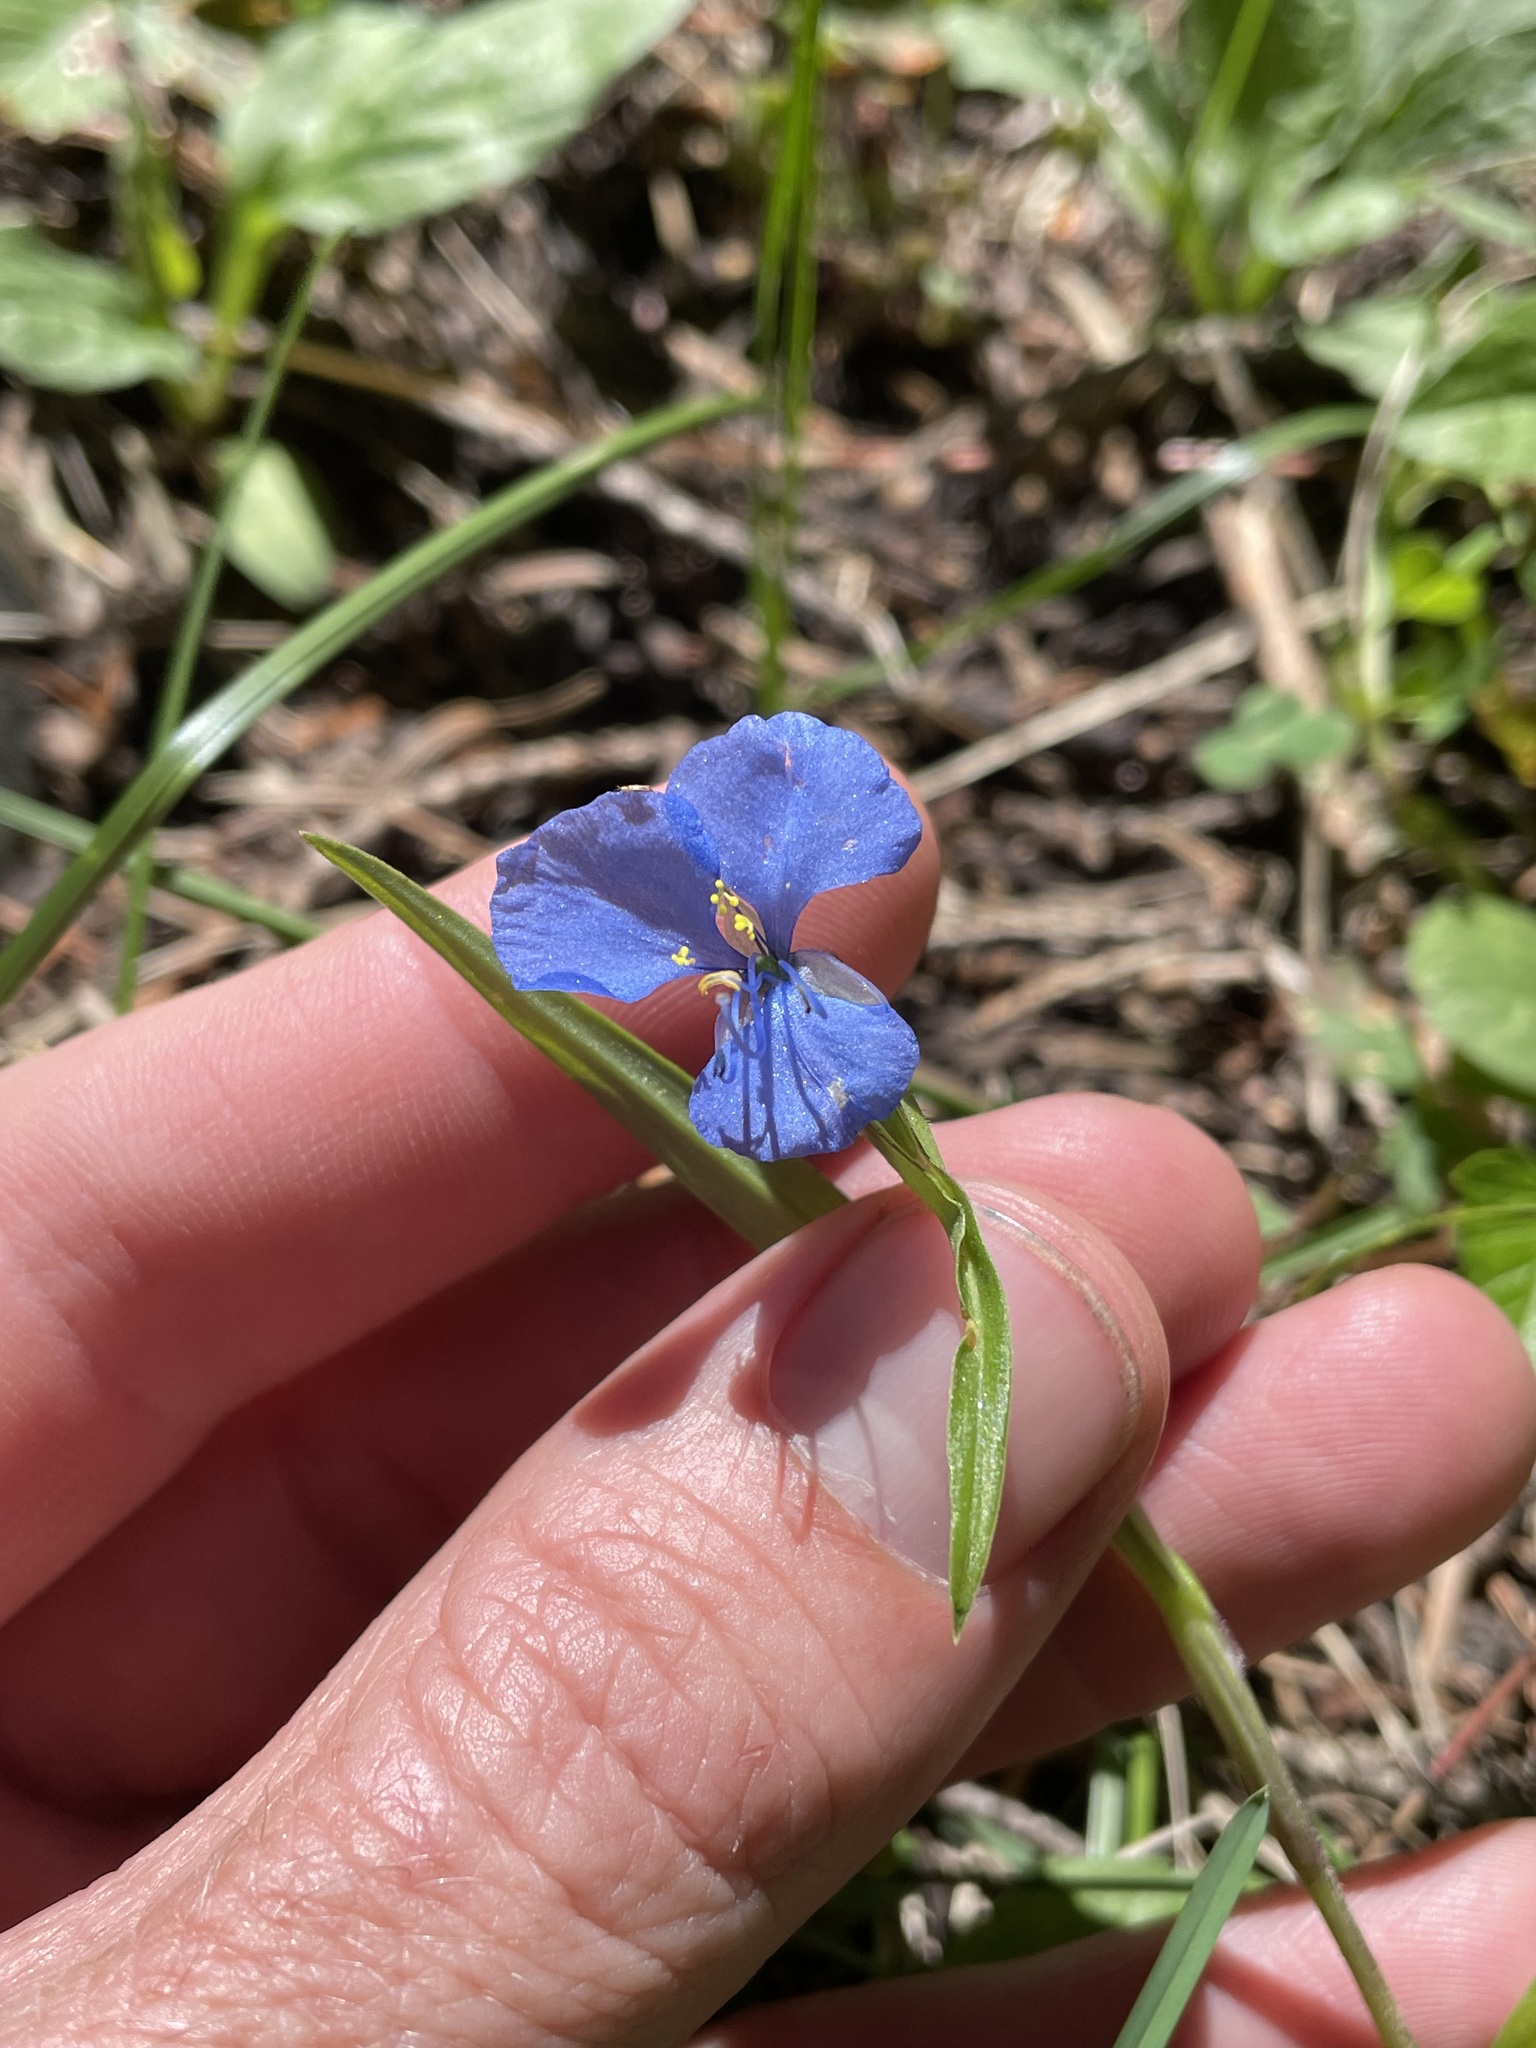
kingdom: Plantae
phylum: Tracheophyta
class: Liliopsida
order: Commelinales
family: Commelinaceae
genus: Commelina
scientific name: Commelina dianthifolia
